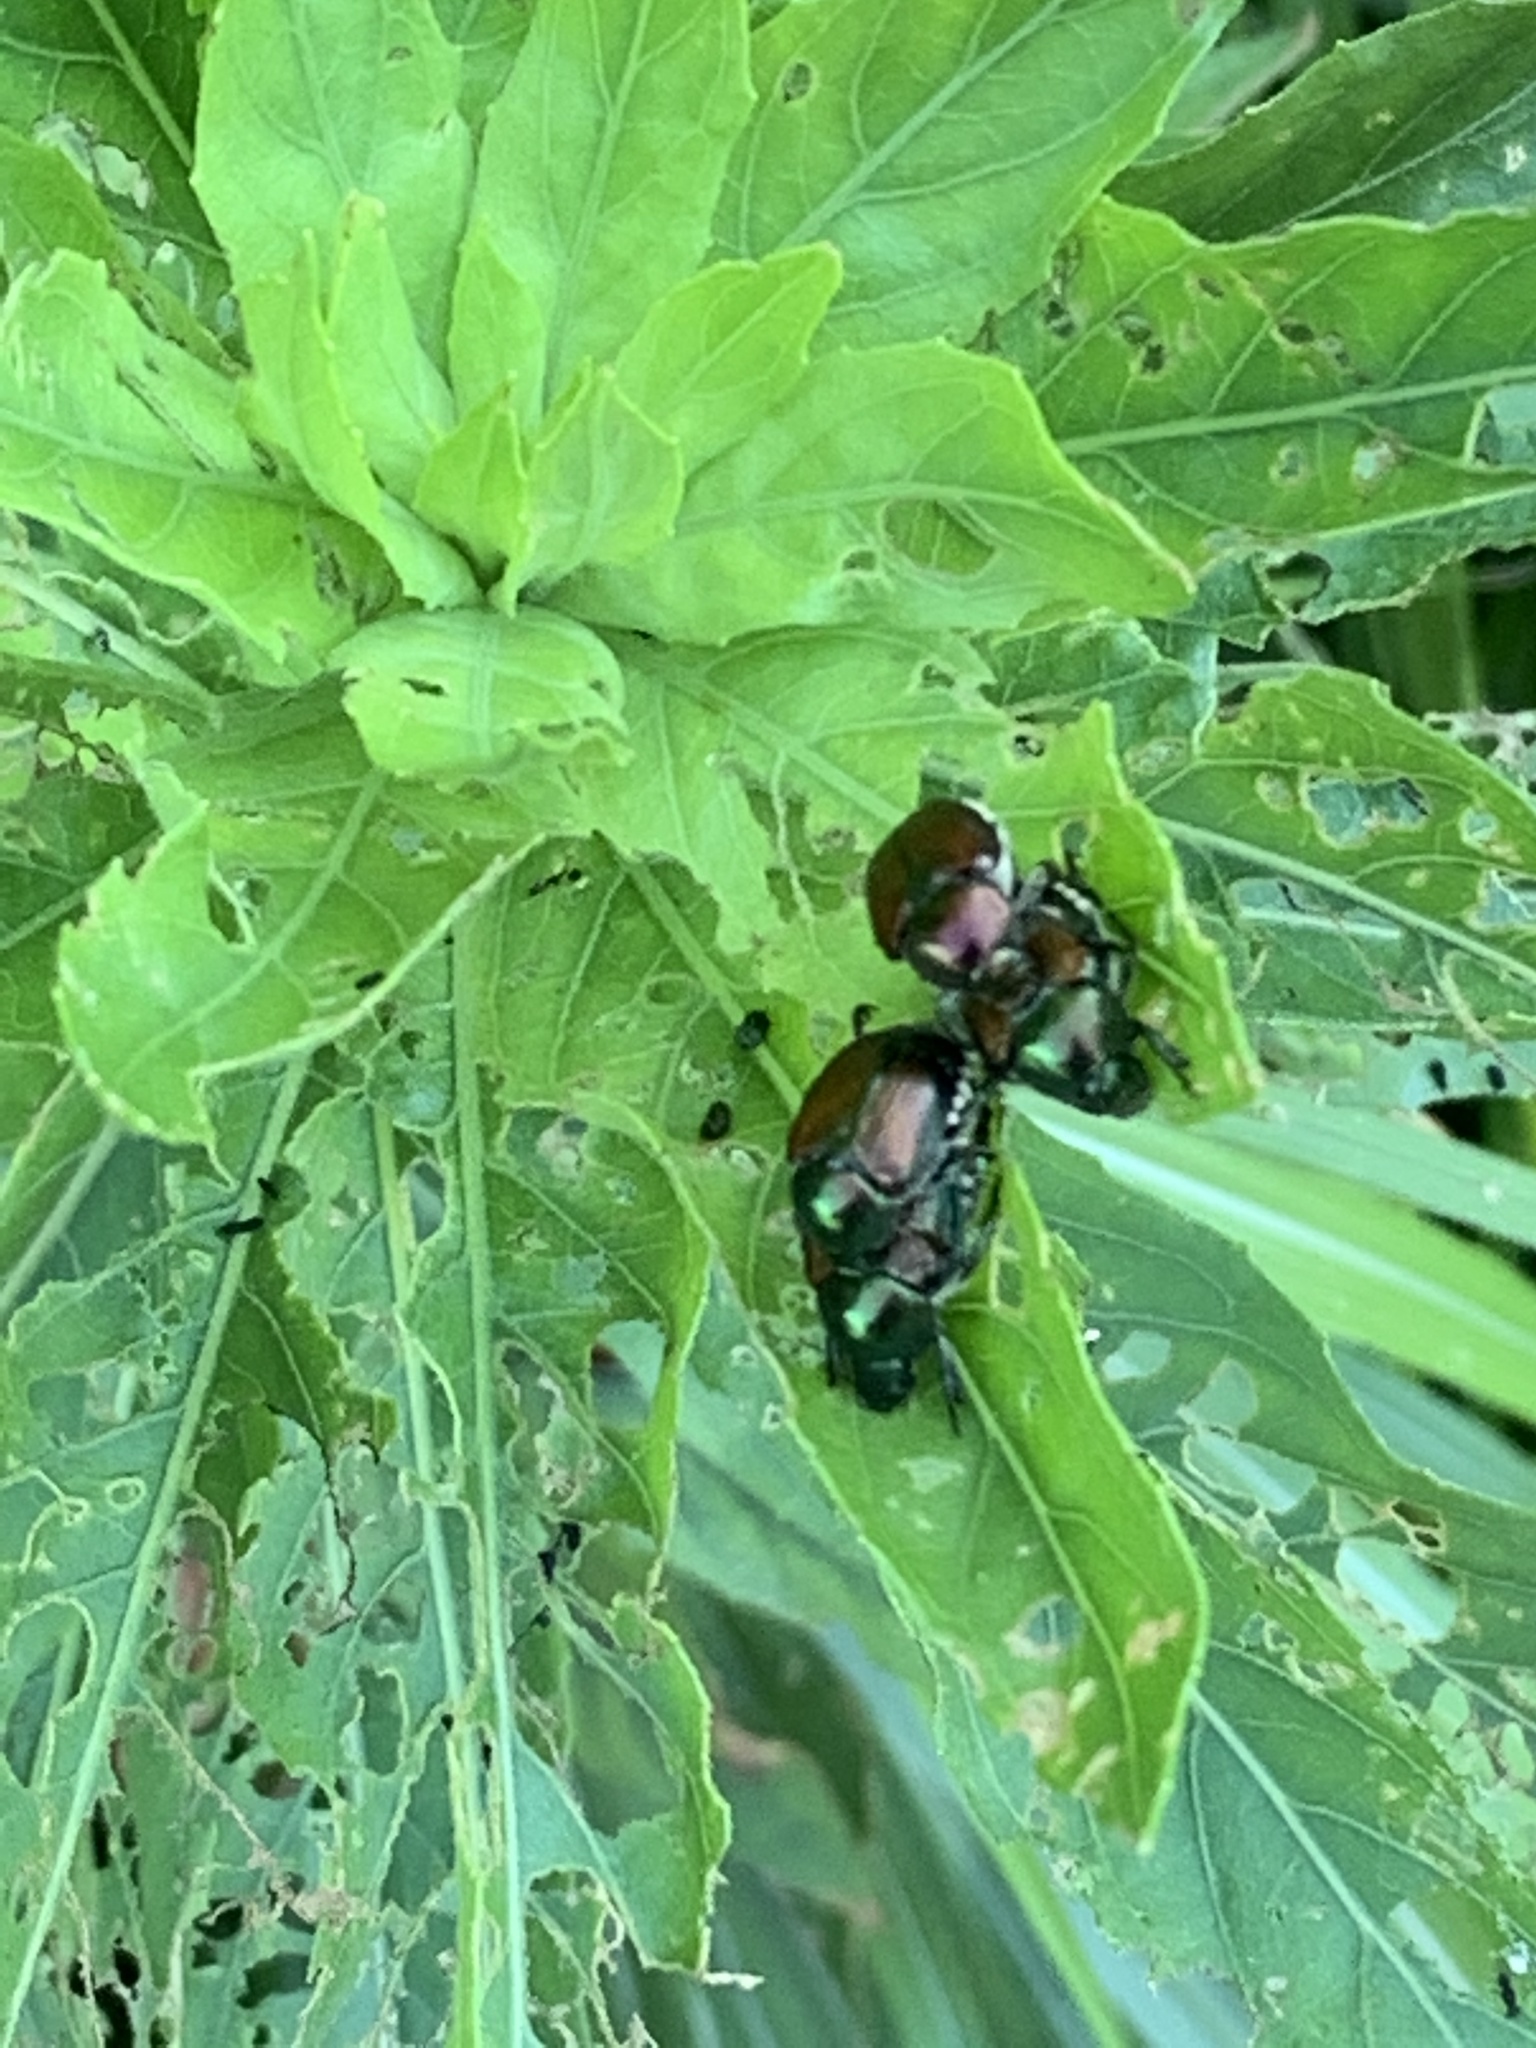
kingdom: Animalia
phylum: Arthropoda
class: Insecta
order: Coleoptera
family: Scarabaeidae
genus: Popillia
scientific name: Popillia japonica
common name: Japanese beetle
